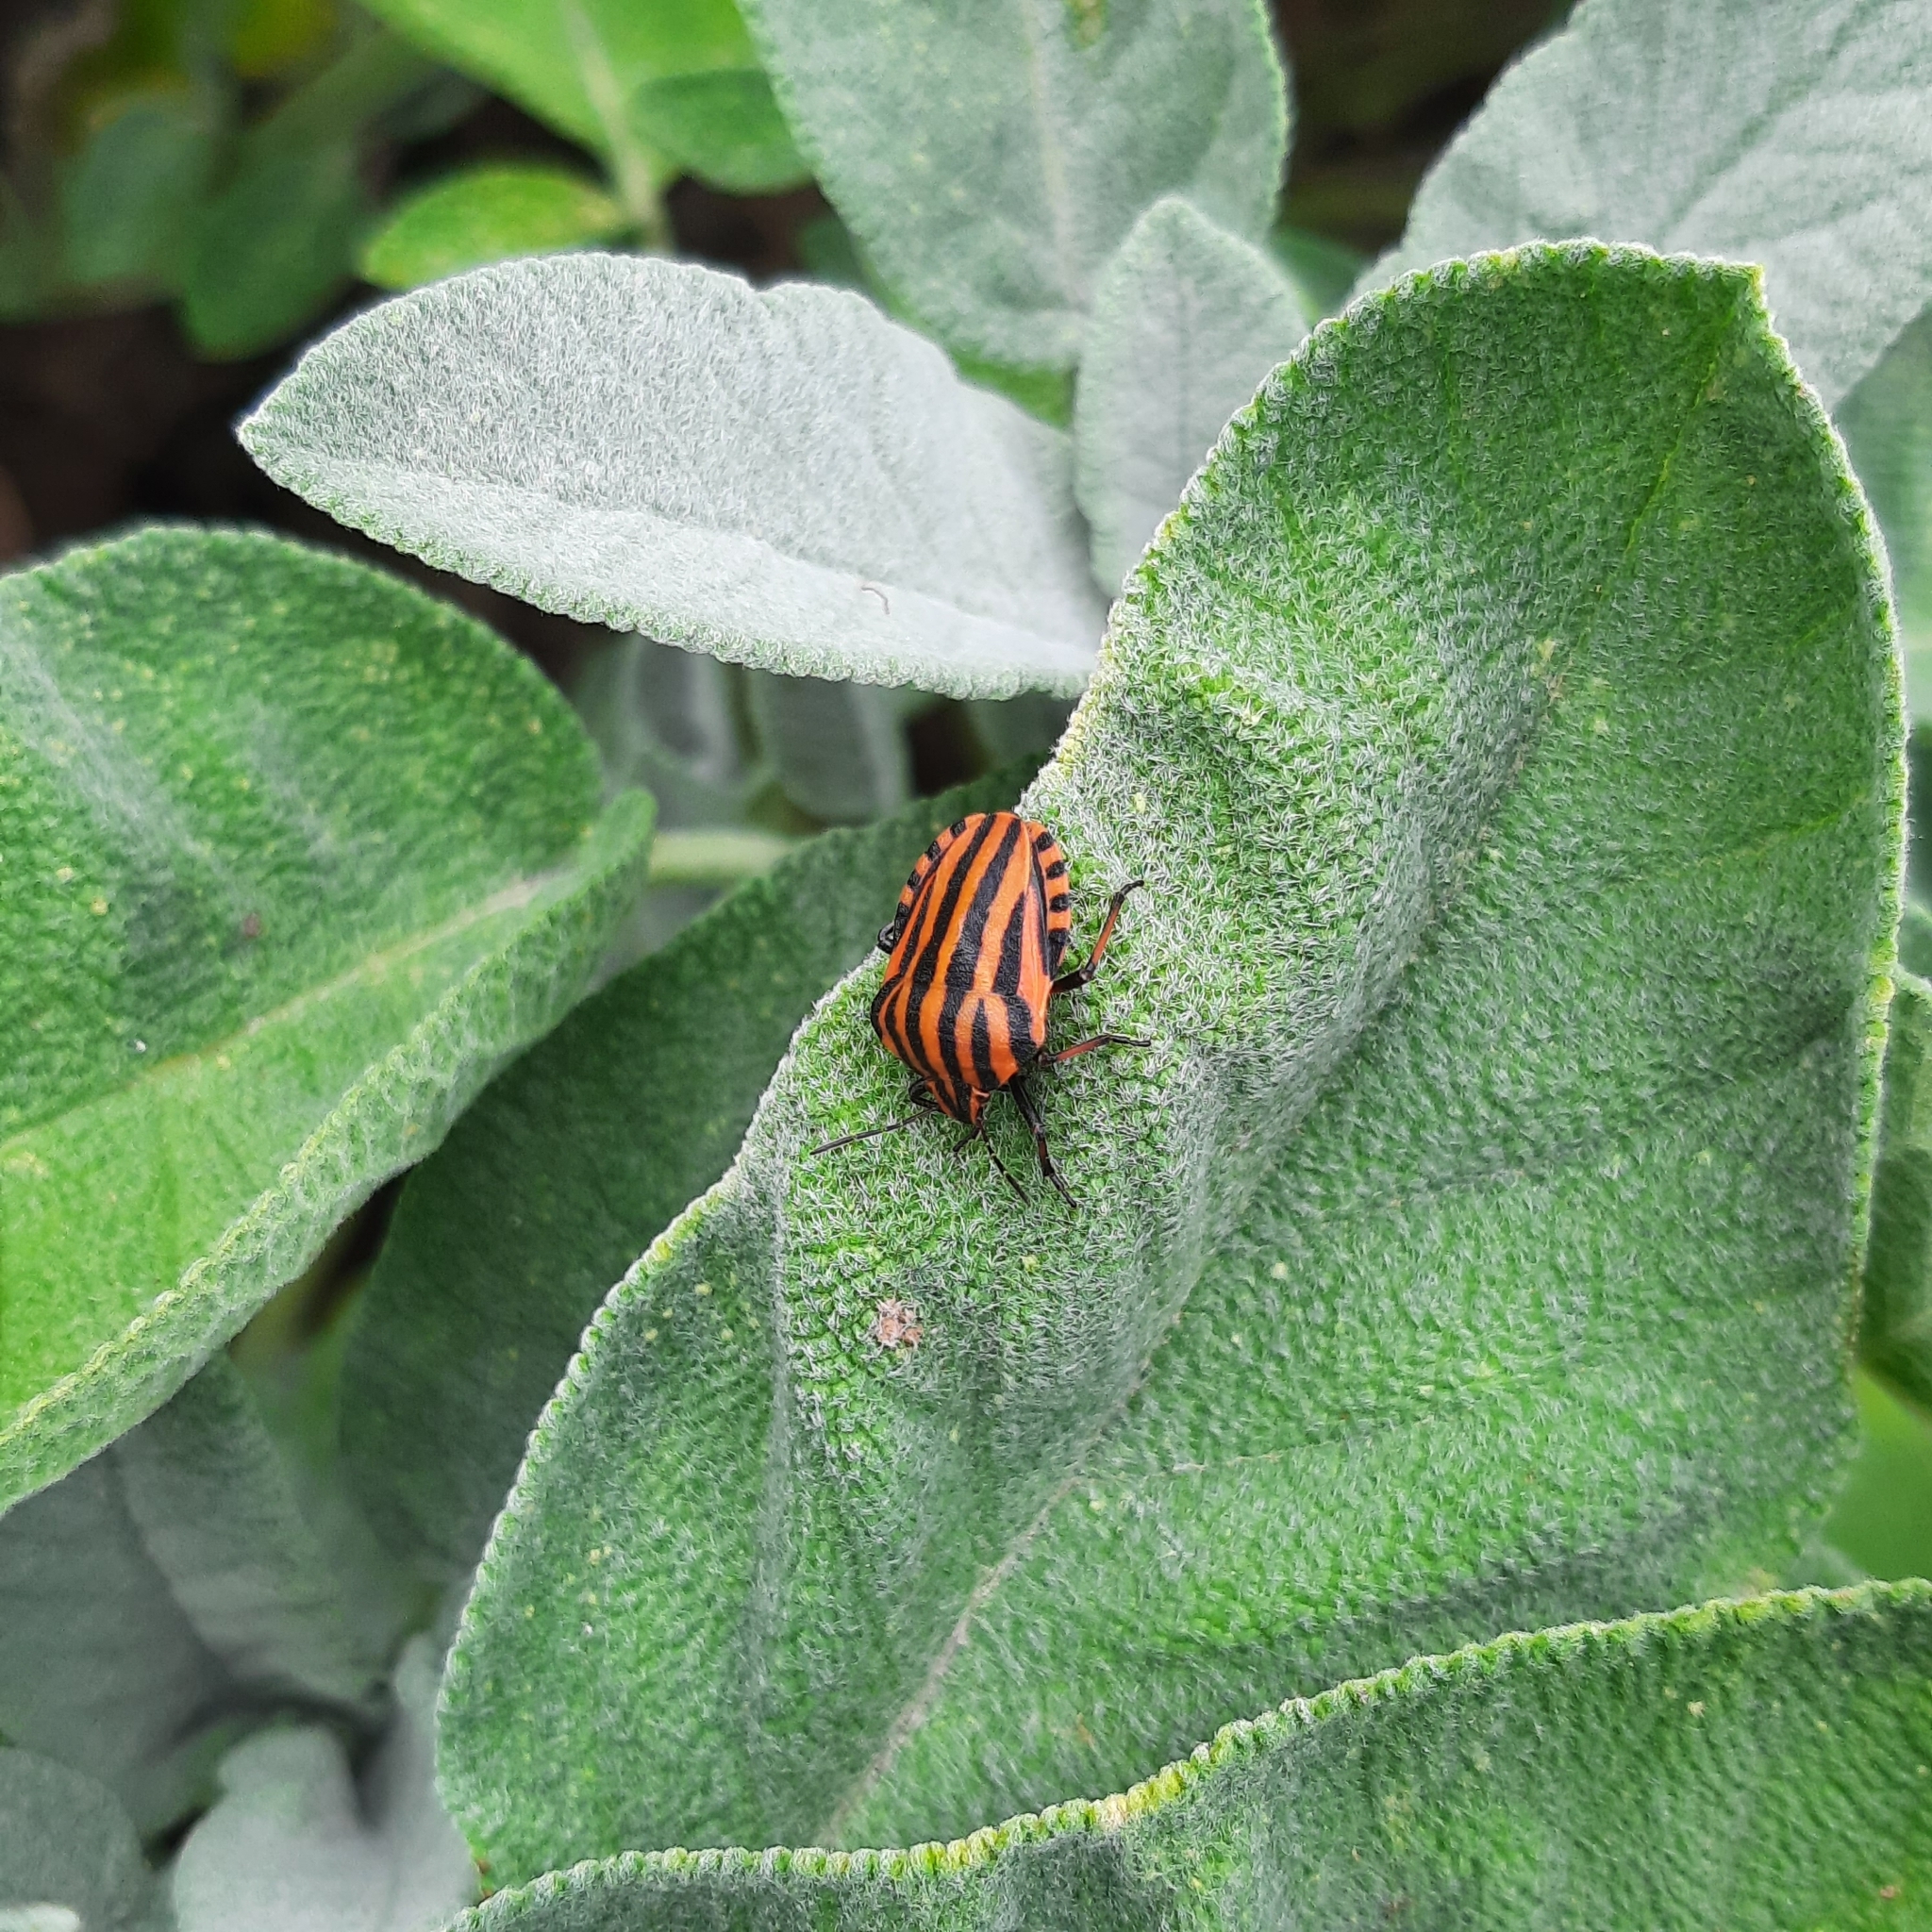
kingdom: Animalia
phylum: Arthropoda
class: Insecta
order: Hemiptera
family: Pentatomidae
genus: Graphosoma
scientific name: Graphosoma italicum
